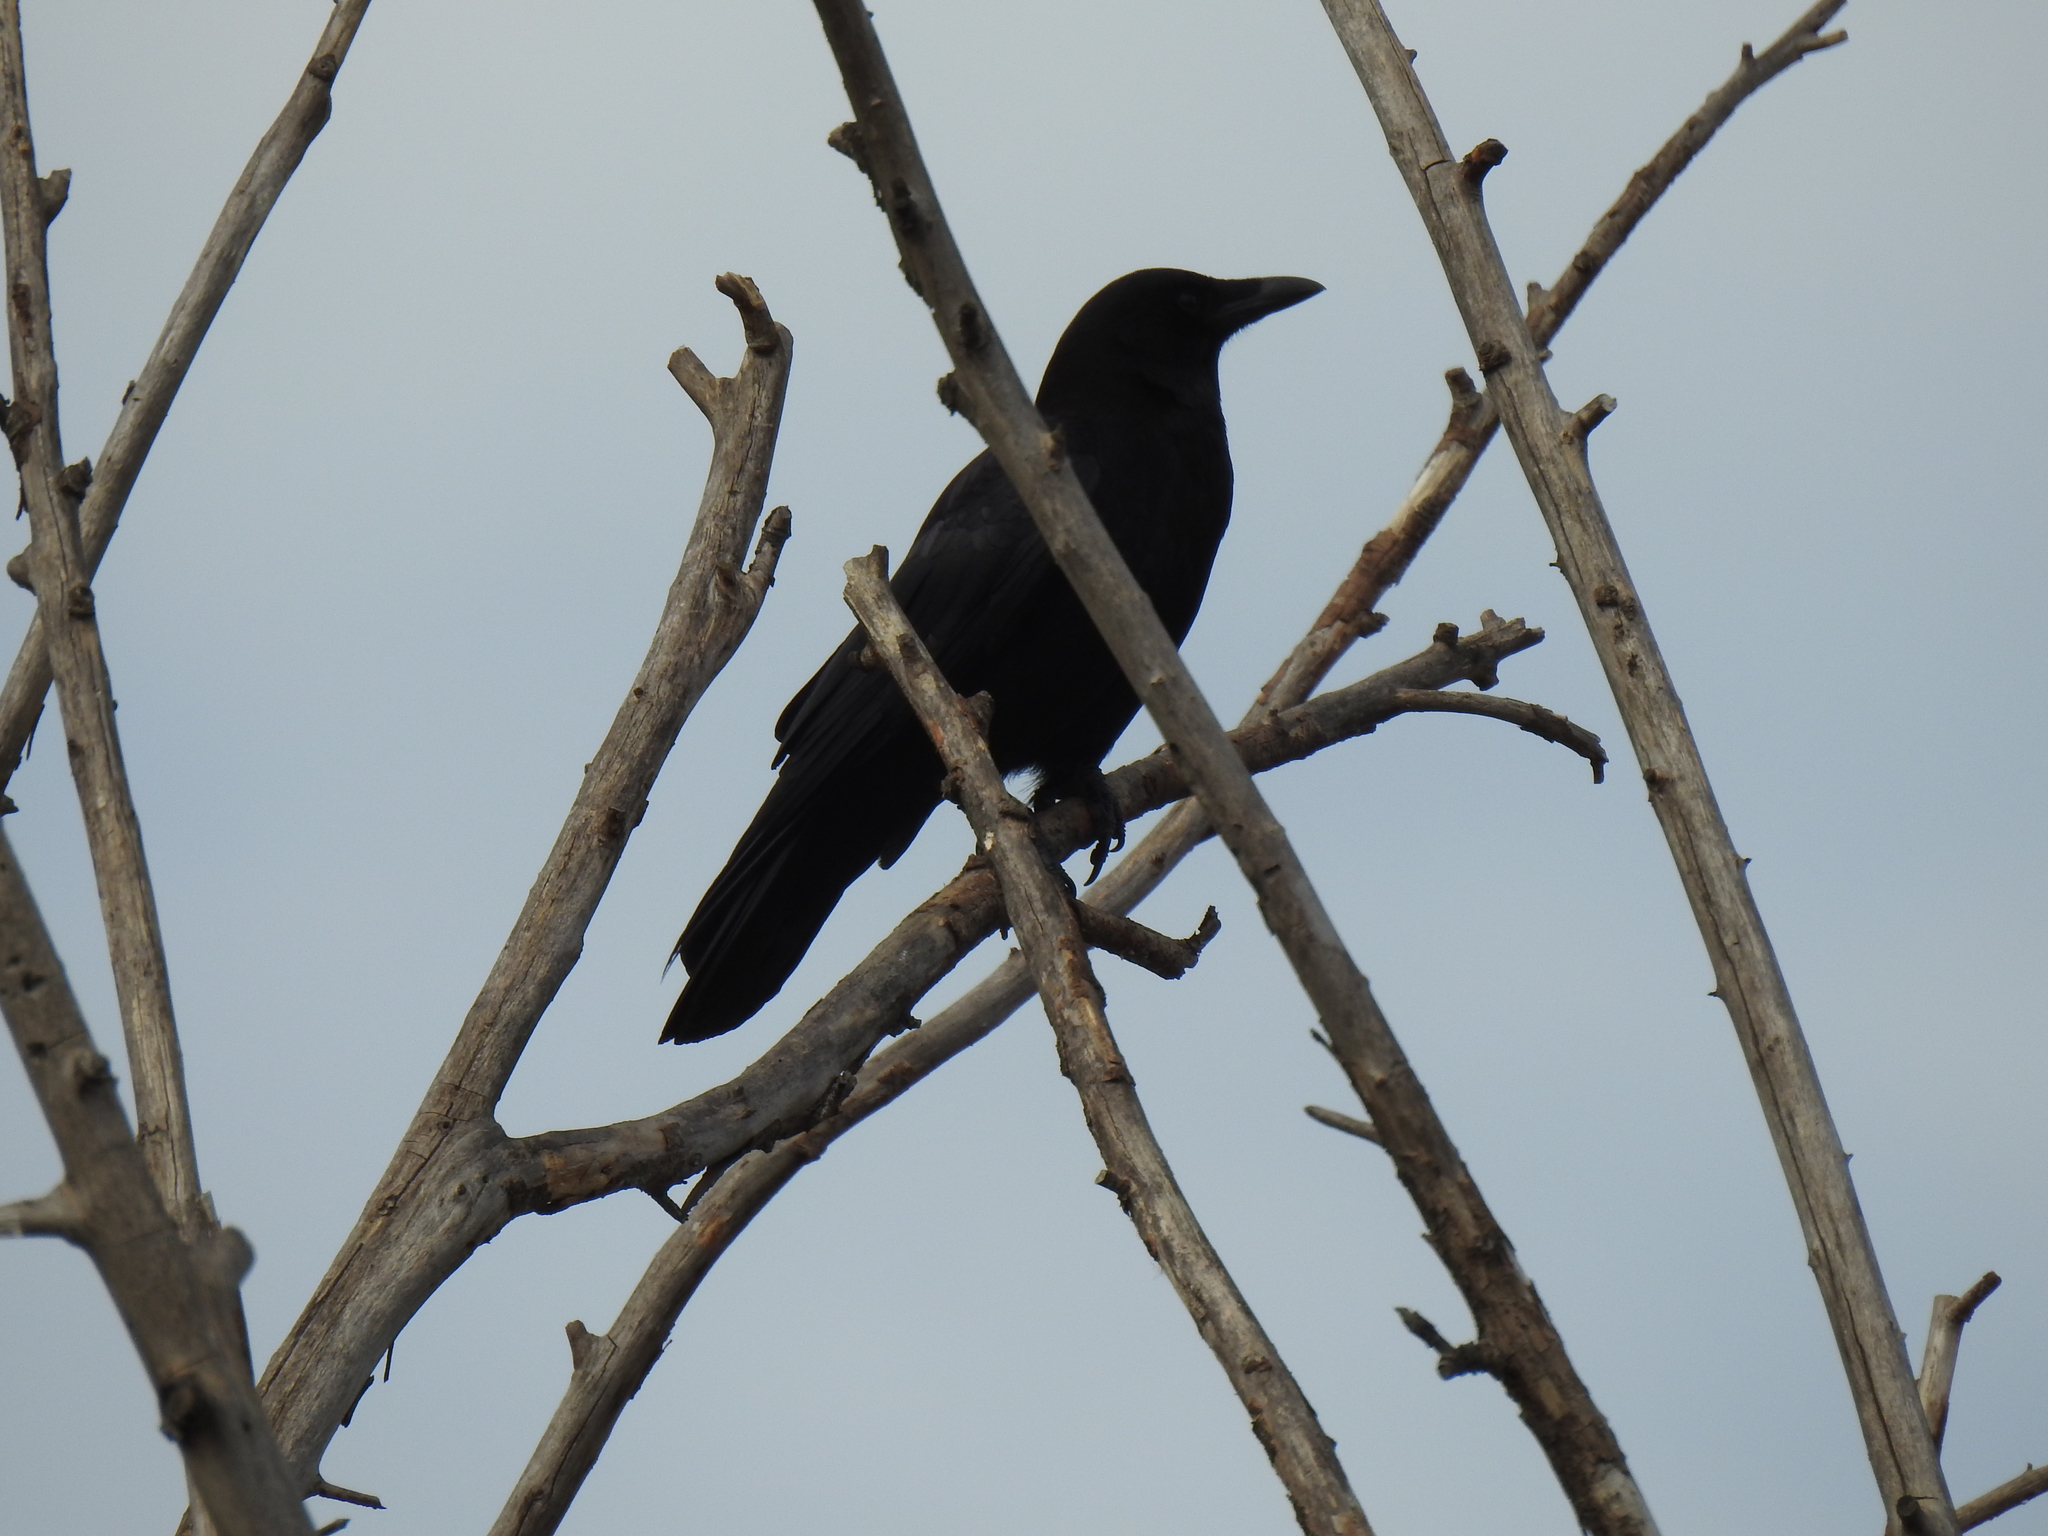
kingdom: Animalia
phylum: Chordata
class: Aves
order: Passeriformes
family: Corvidae
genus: Corvus
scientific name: Corvus brachyrhynchos
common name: American crow
